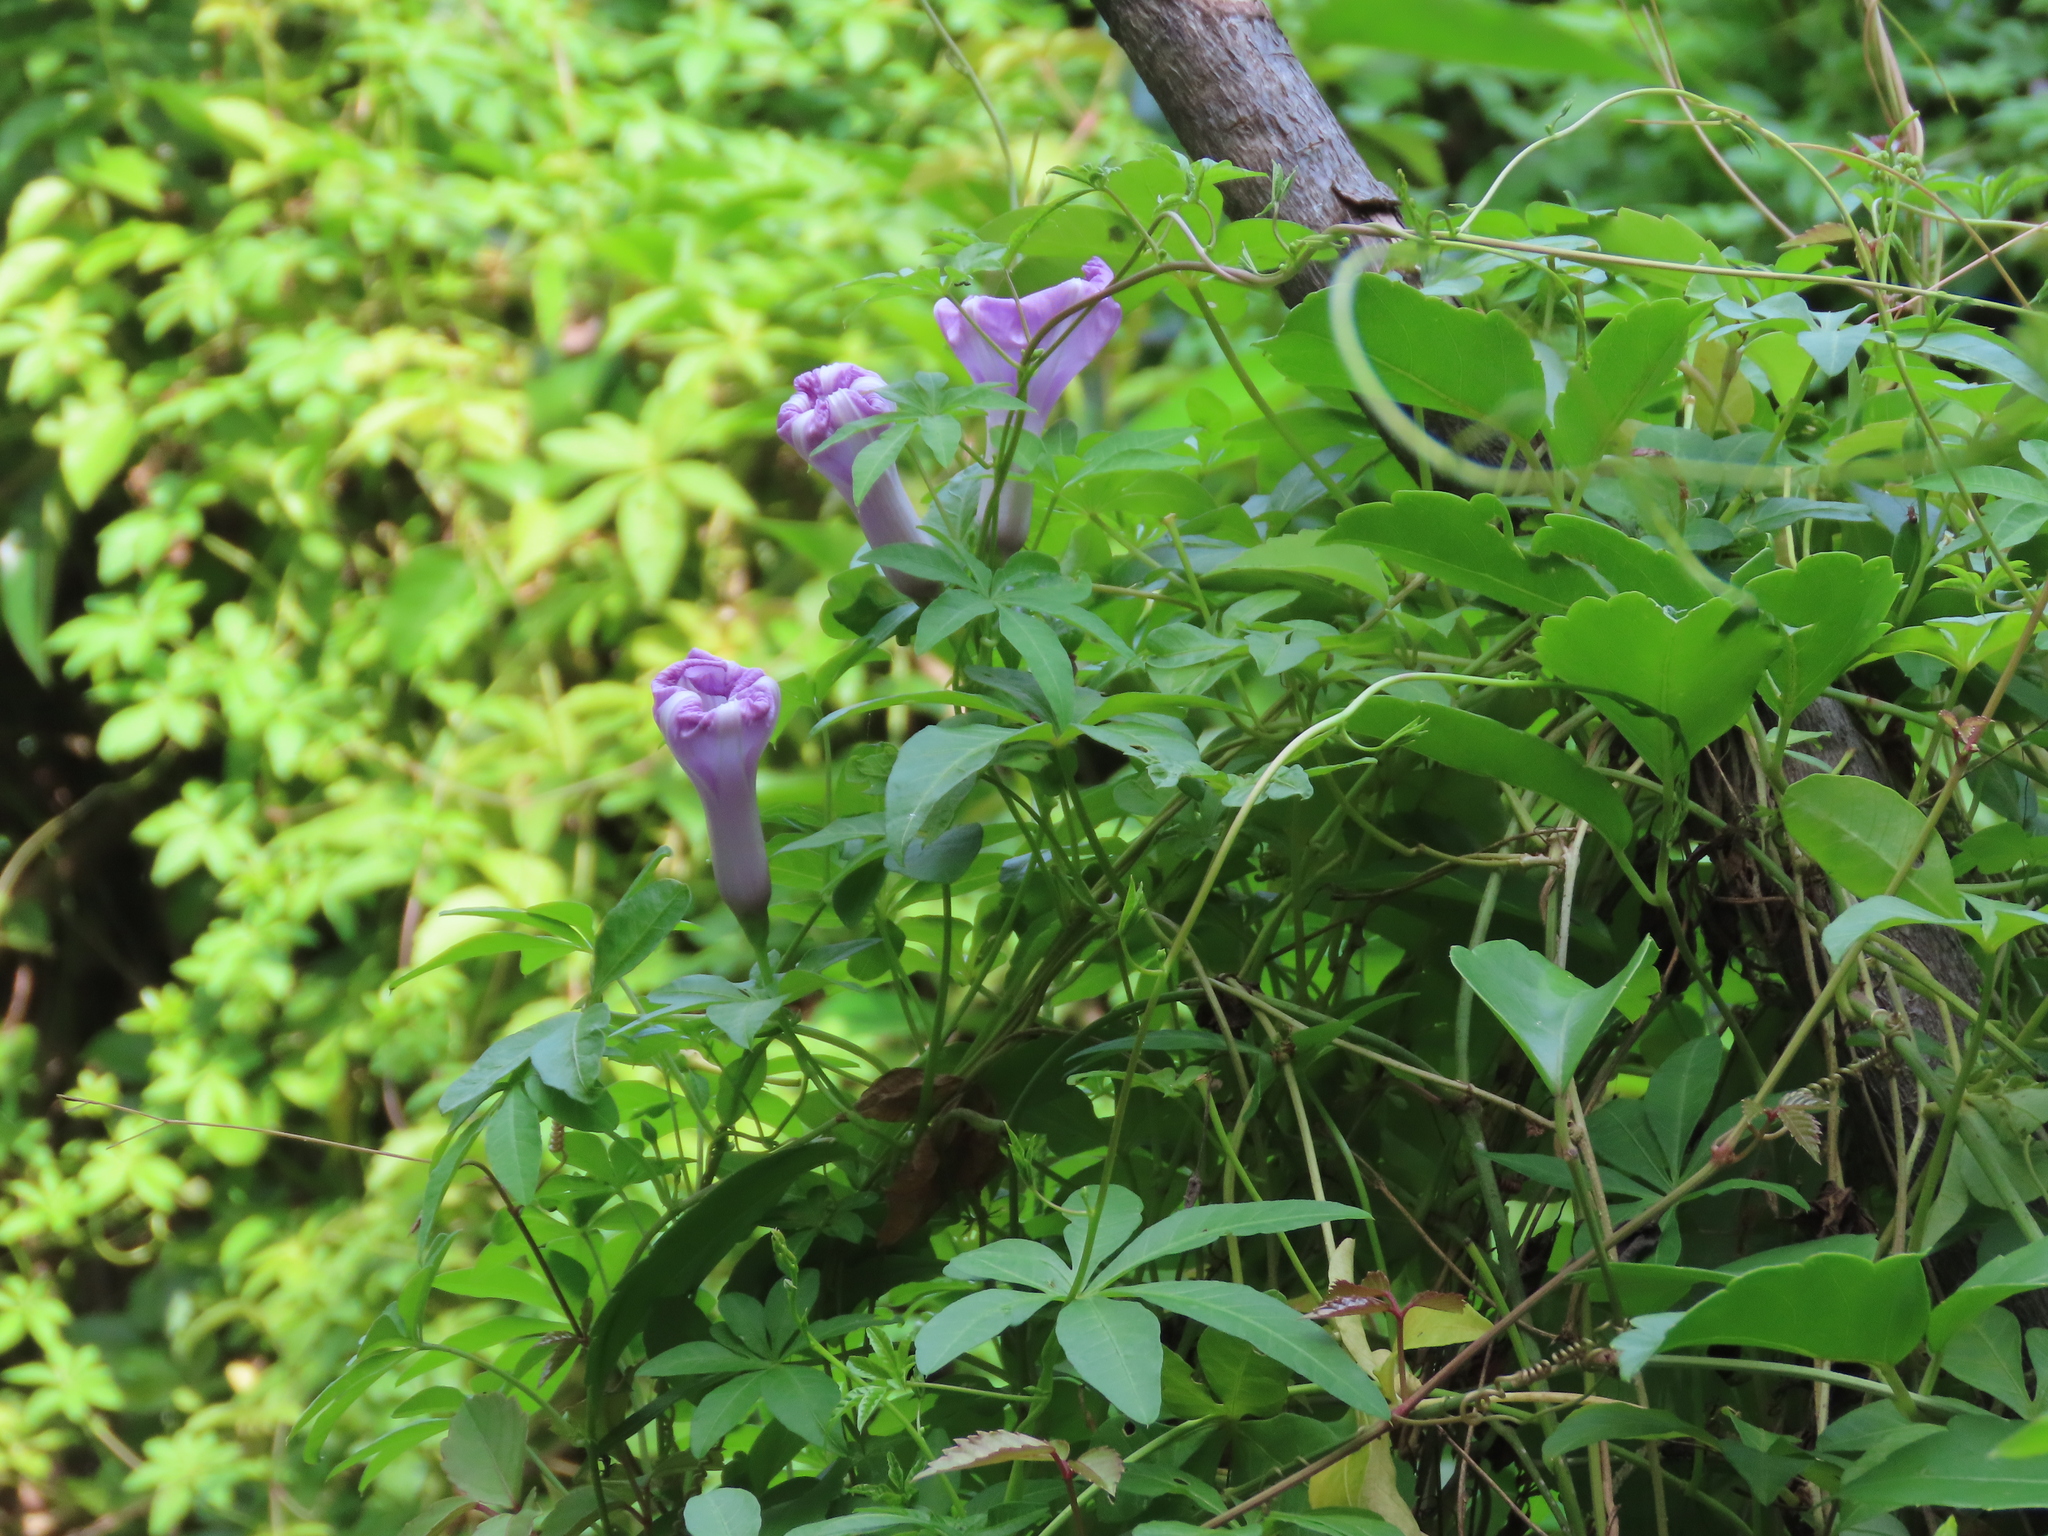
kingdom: Plantae
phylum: Tracheophyta
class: Magnoliopsida
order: Solanales
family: Convolvulaceae
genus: Ipomoea
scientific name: Ipomoea cairica
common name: Mile a minute vine
